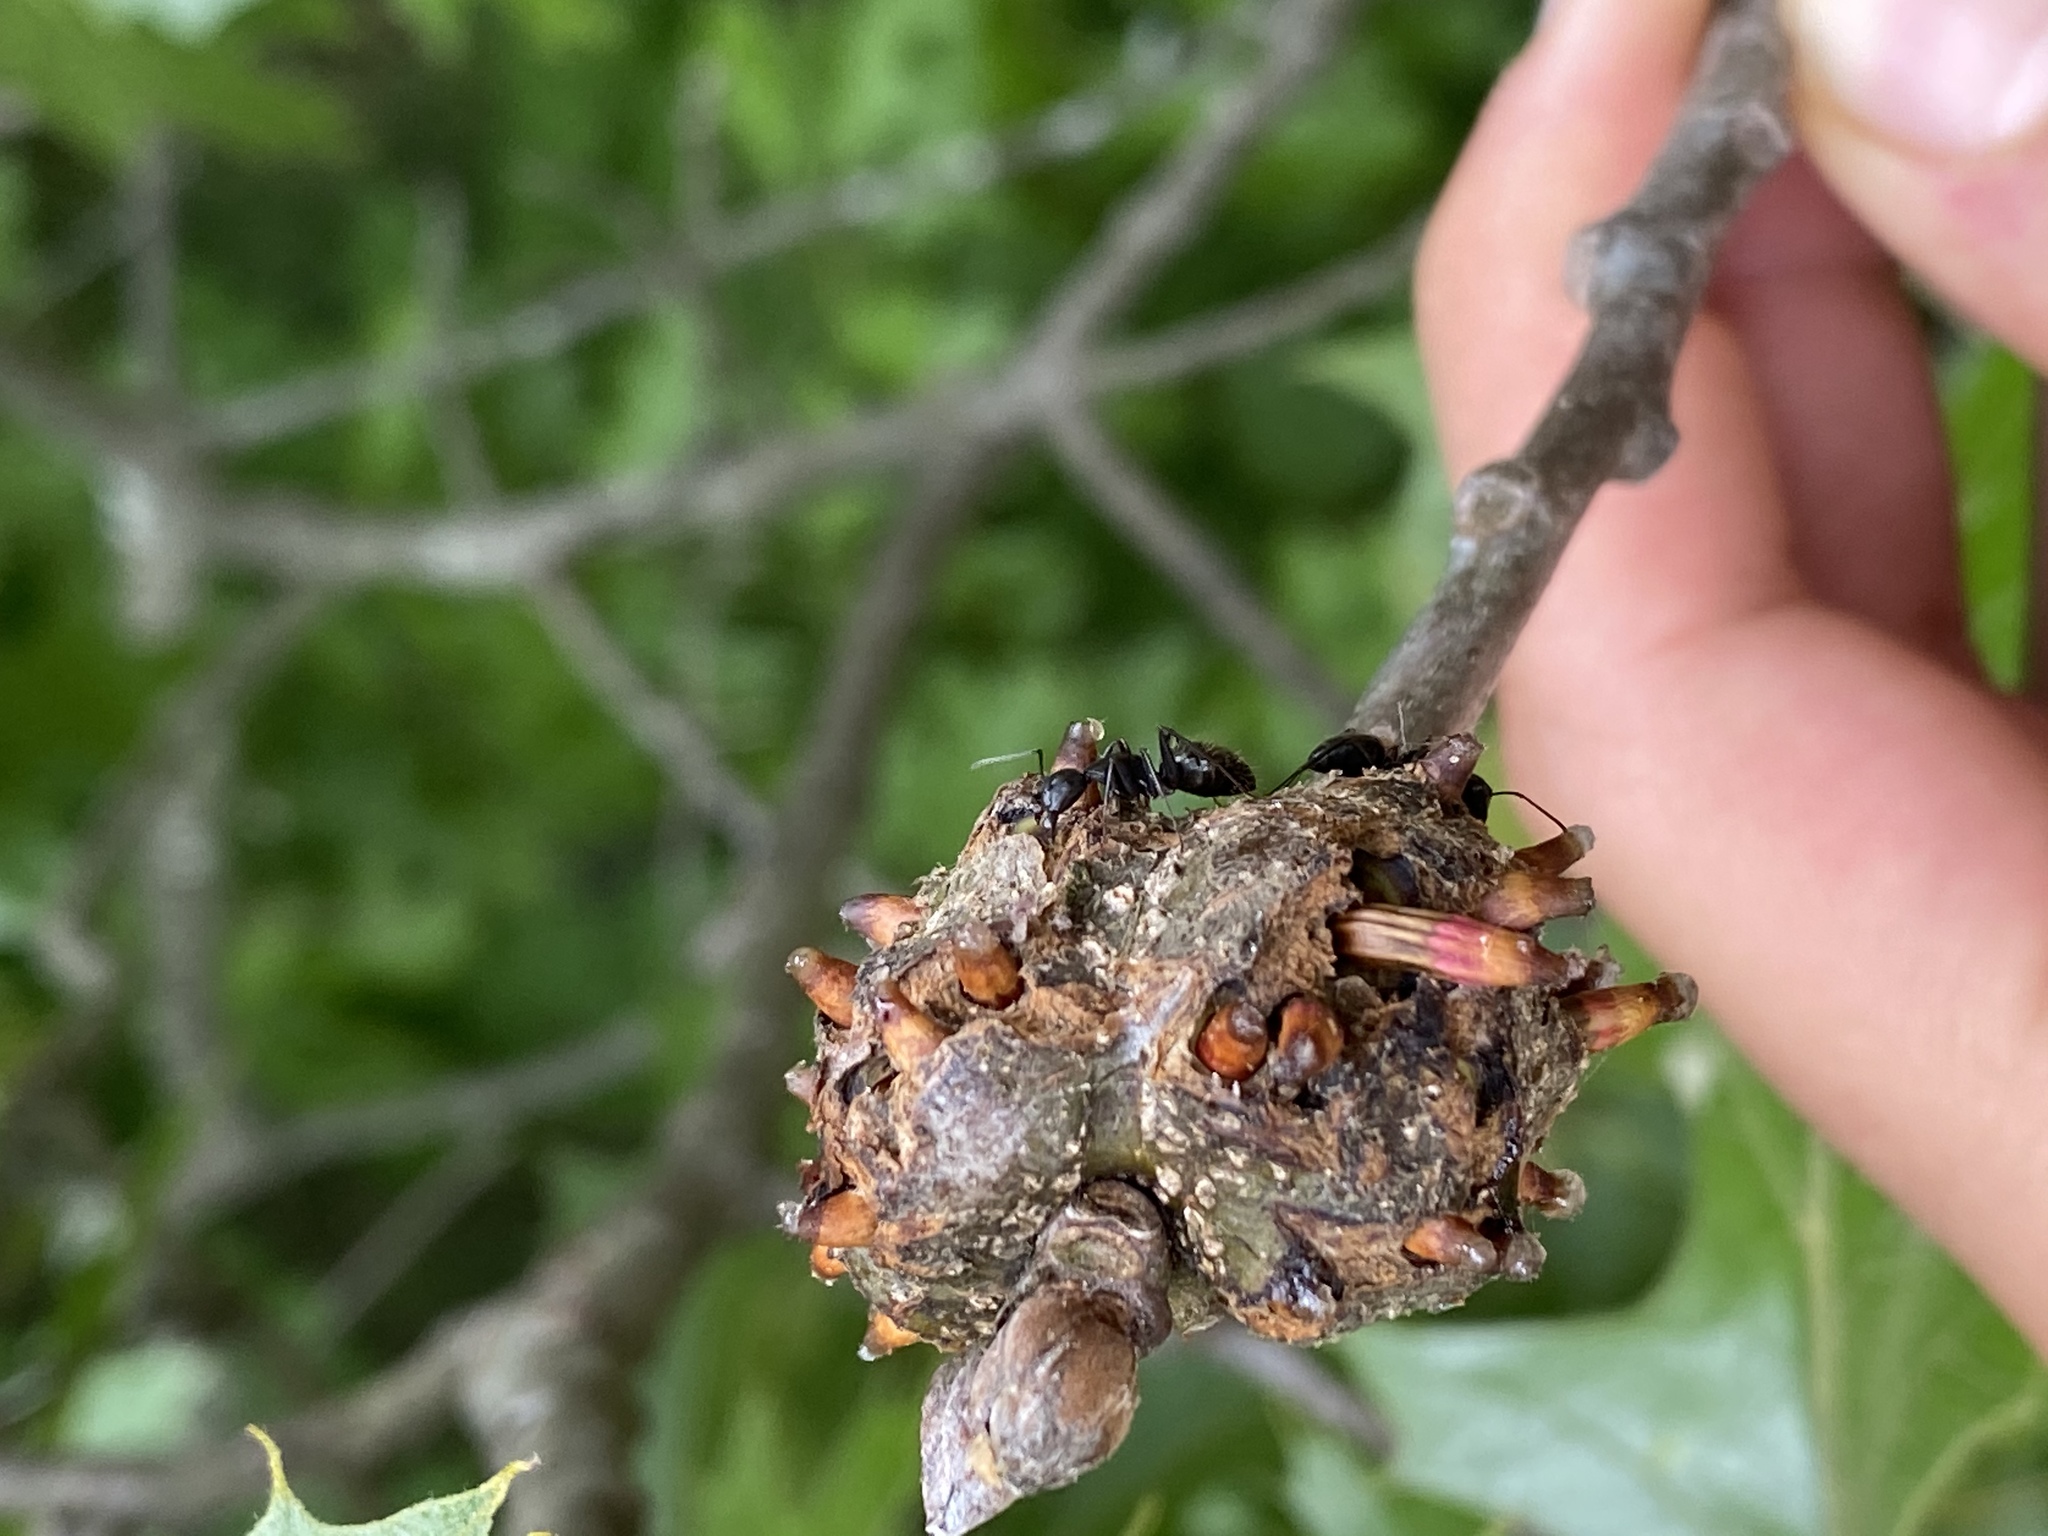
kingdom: Animalia
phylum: Arthropoda
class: Insecta
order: Hymenoptera
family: Formicidae
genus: Camponotus
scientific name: Camponotus pennsylvanicus
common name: Black carpenter ant
